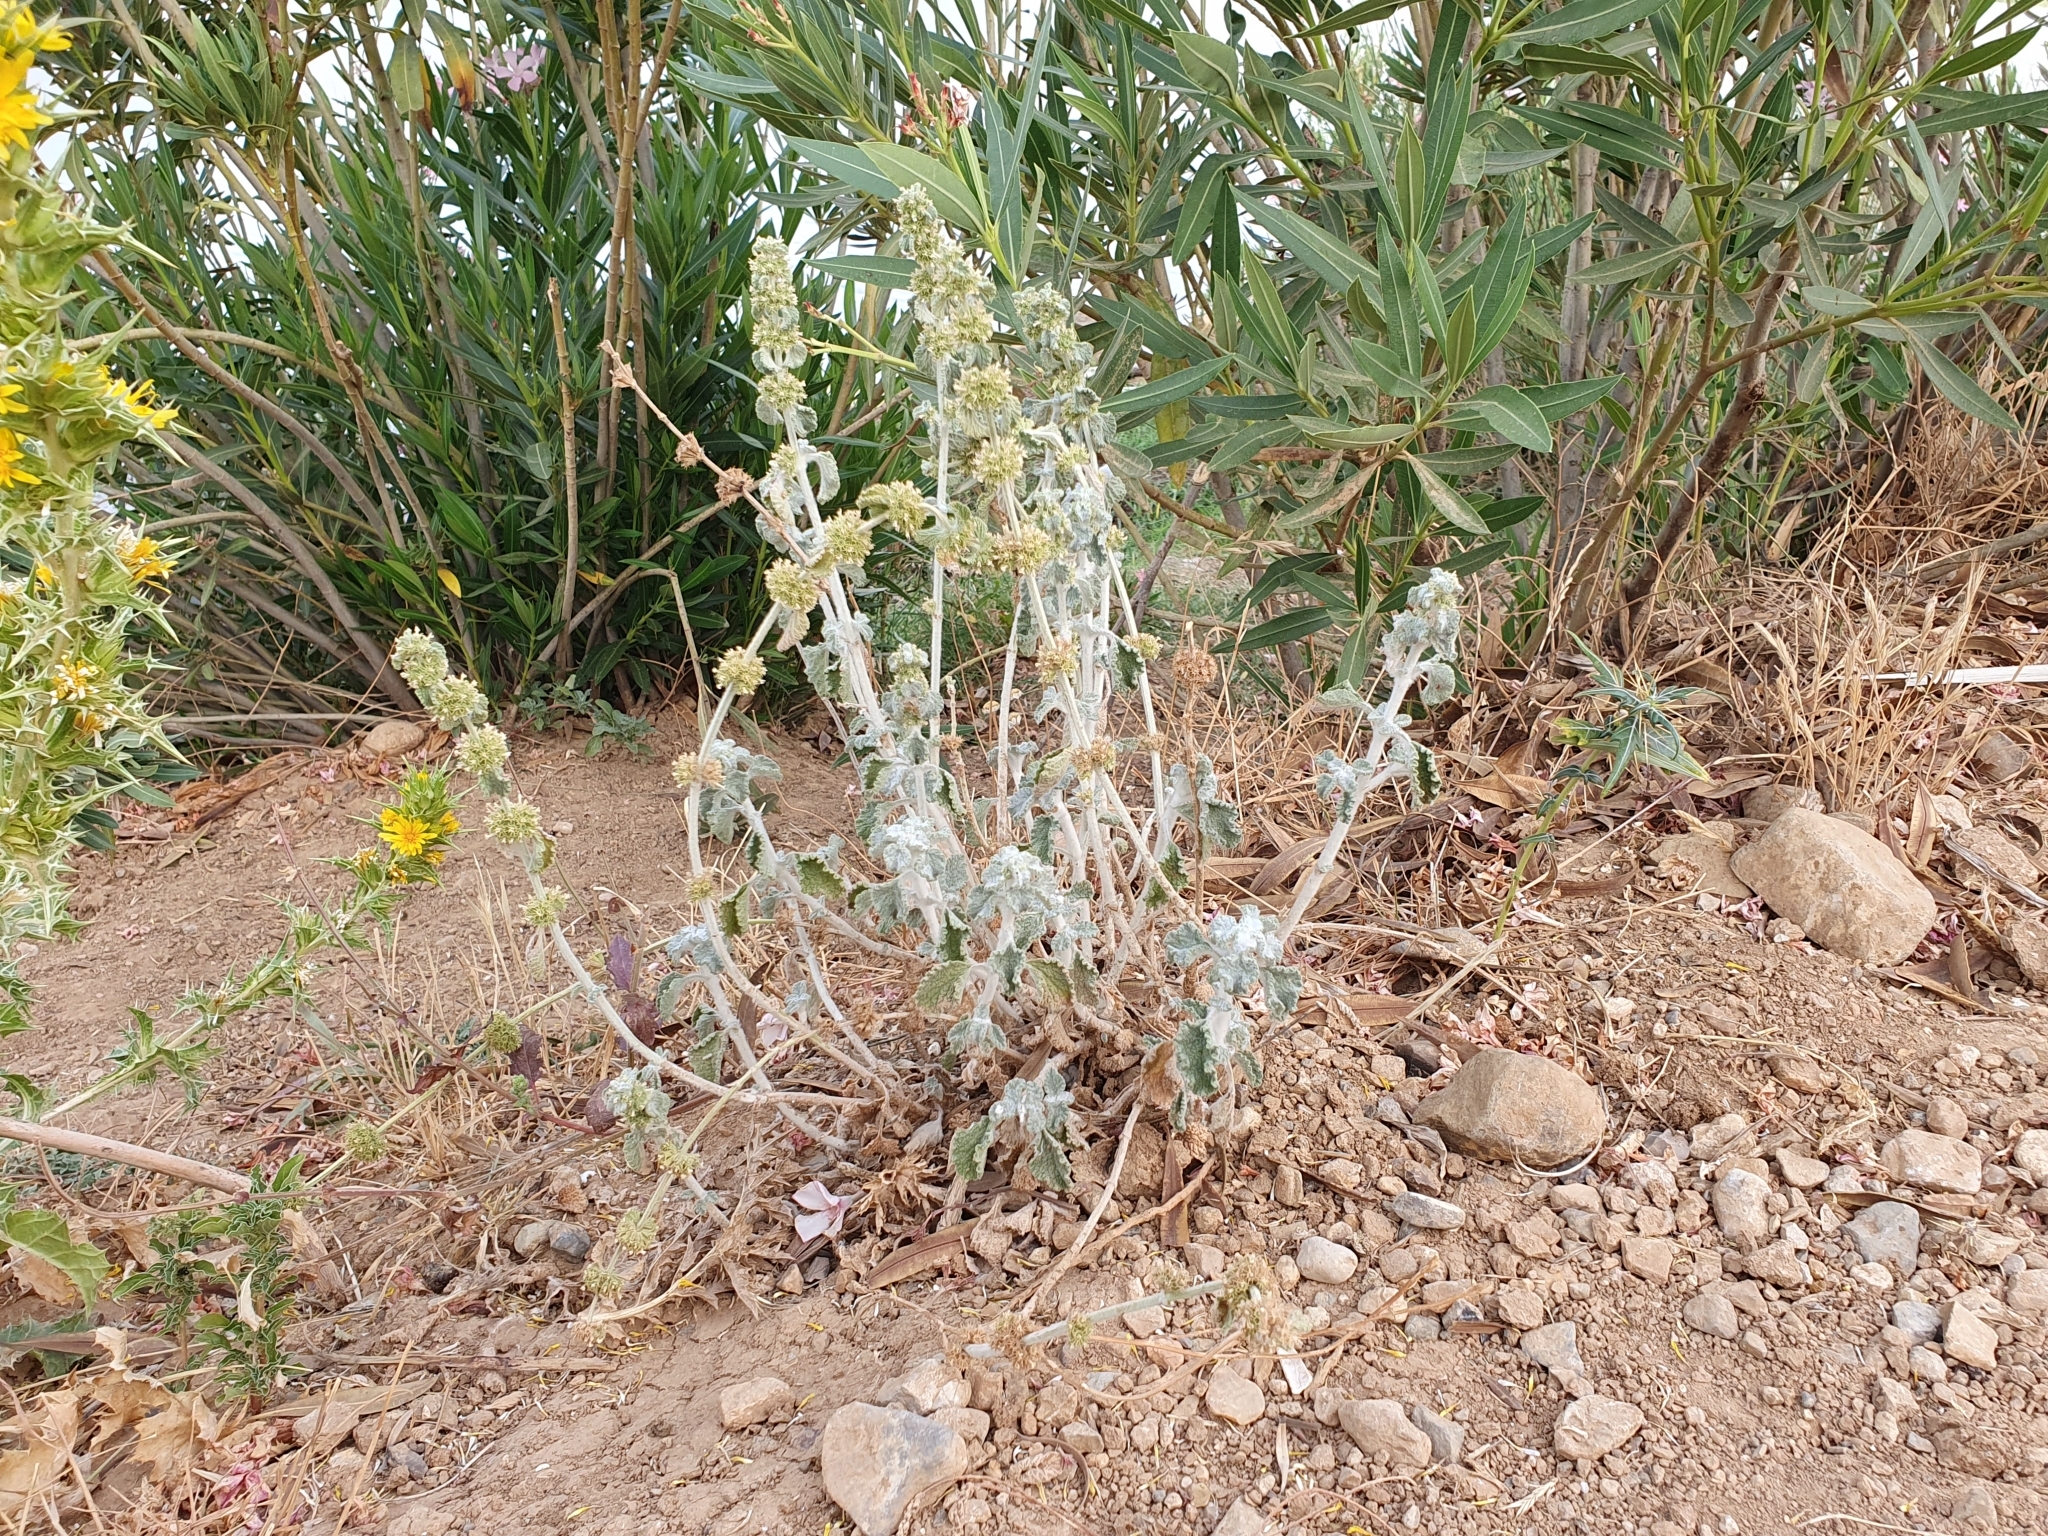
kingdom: Plantae
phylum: Tracheophyta
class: Magnoliopsida
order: Lamiales
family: Lamiaceae
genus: Marrubium
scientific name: Marrubium vulgare
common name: Horehound
